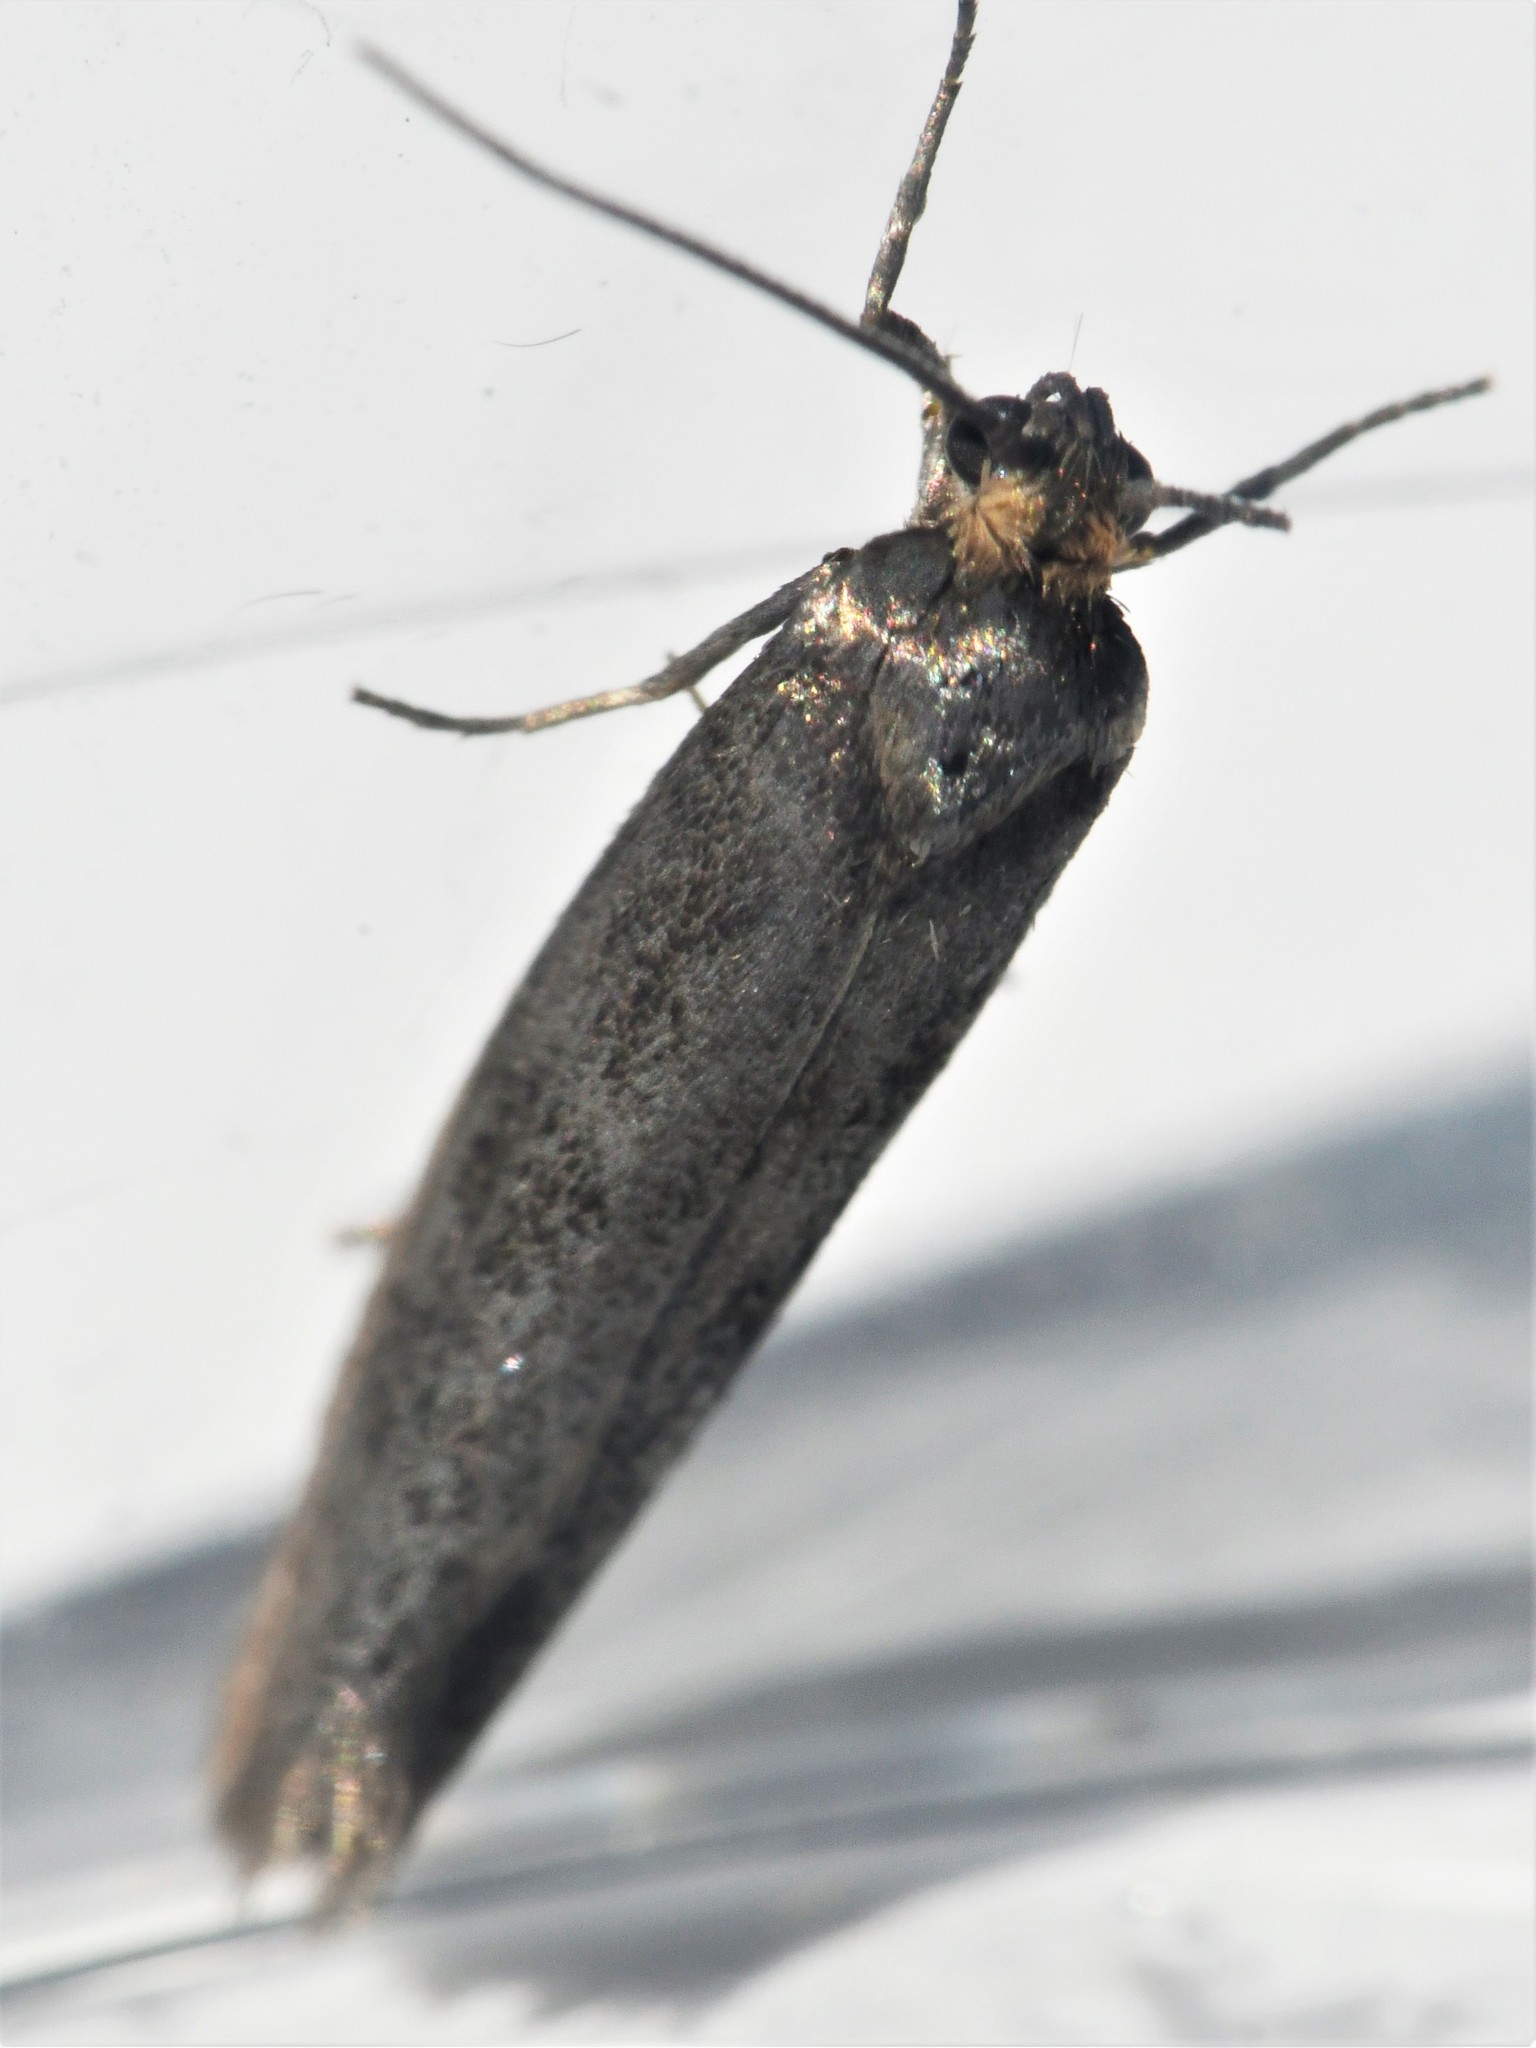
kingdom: Animalia
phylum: Arthropoda
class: Insecta
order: Lepidoptera
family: Praydidae
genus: Prays
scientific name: Prays curtisella
